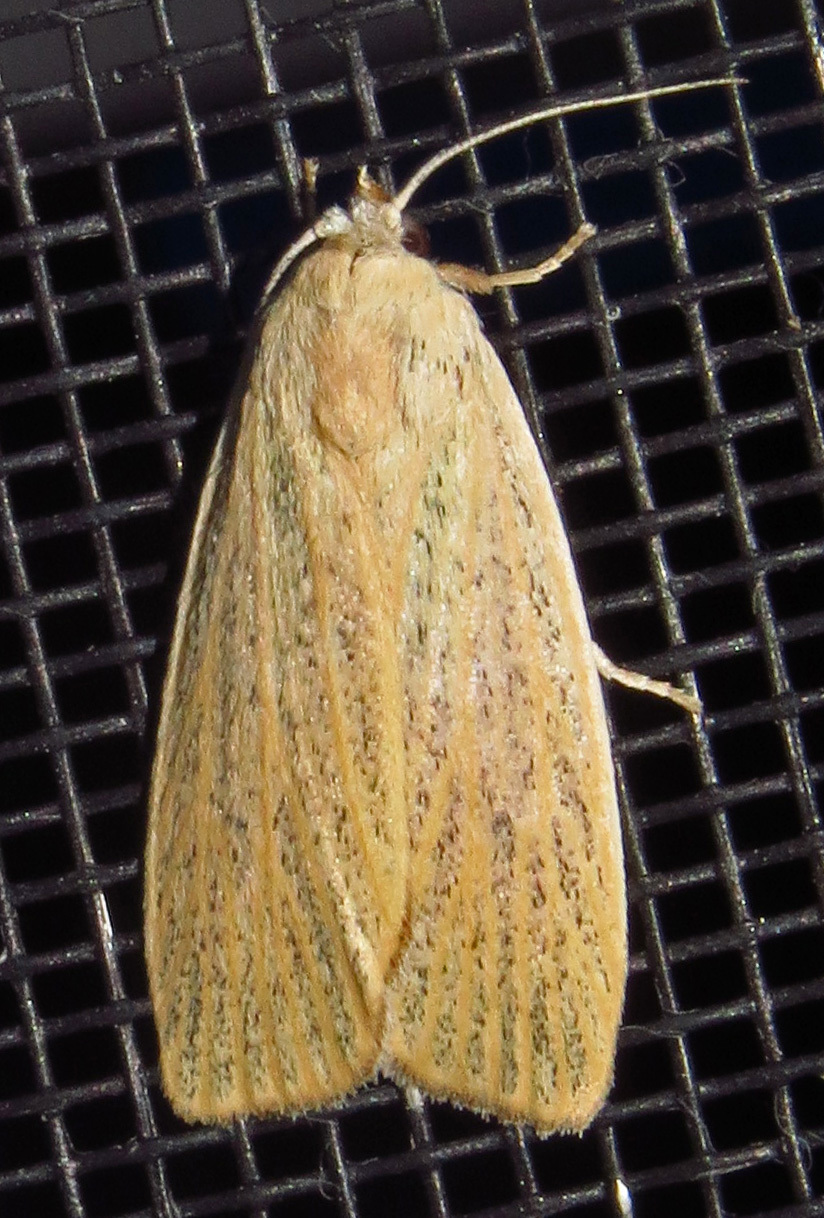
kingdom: Animalia
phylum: Arthropoda
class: Insecta
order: Lepidoptera
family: Erebidae
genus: Palpidia
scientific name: Palpidia pallidior
